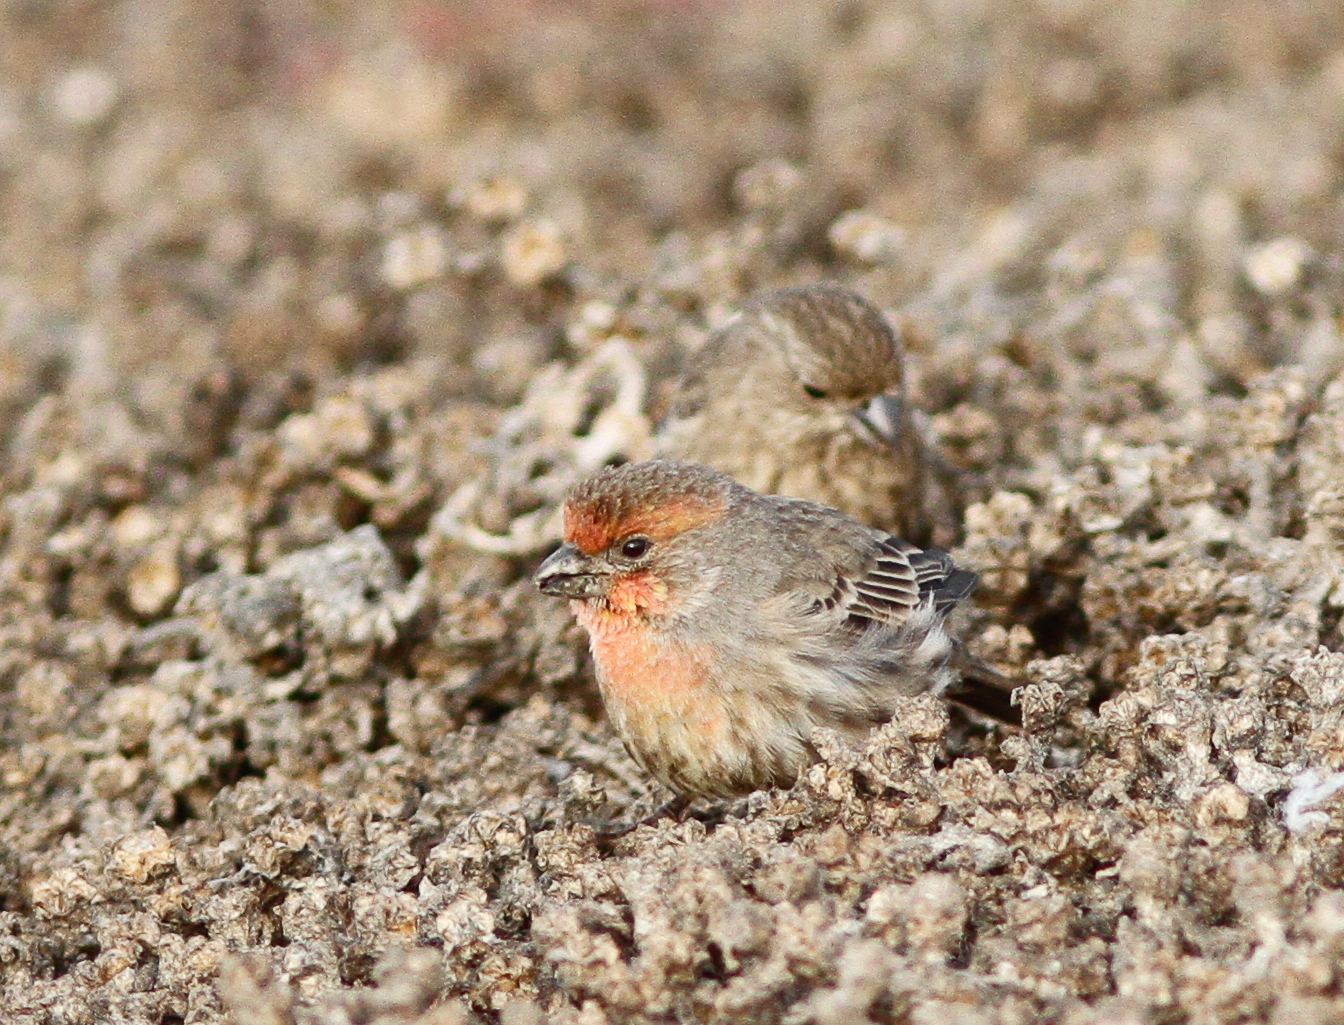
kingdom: Animalia
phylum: Chordata
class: Aves
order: Passeriformes
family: Fringillidae
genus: Haemorhous
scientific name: Haemorhous mexicanus
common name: House finch
